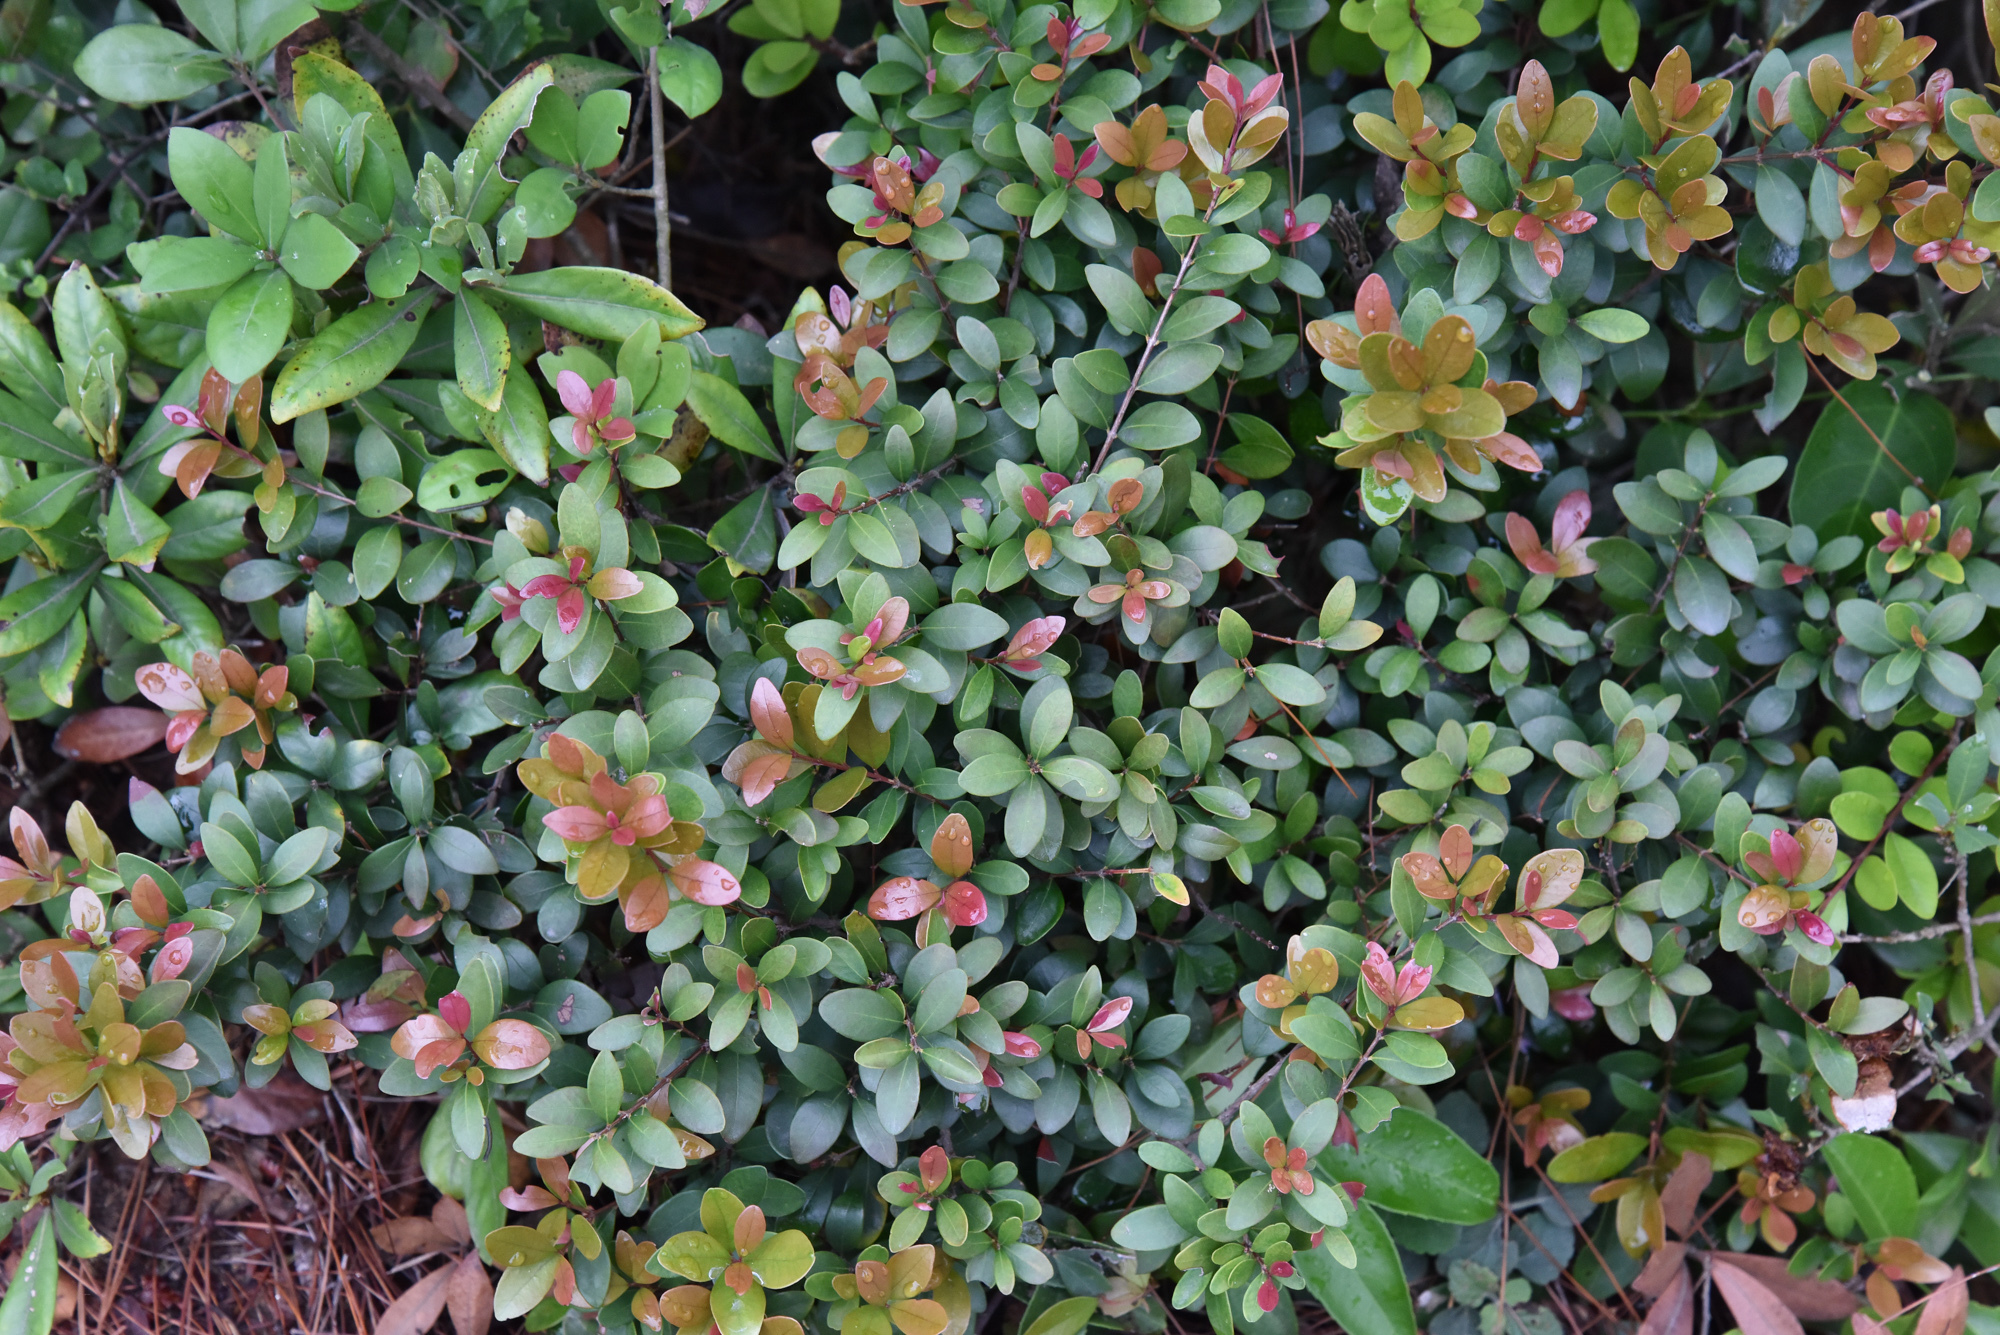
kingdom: Plantae
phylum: Tracheophyta
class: Magnoliopsida
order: Myrtales
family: Myrtaceae
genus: Syzygium
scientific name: Syzygium buxifolium
